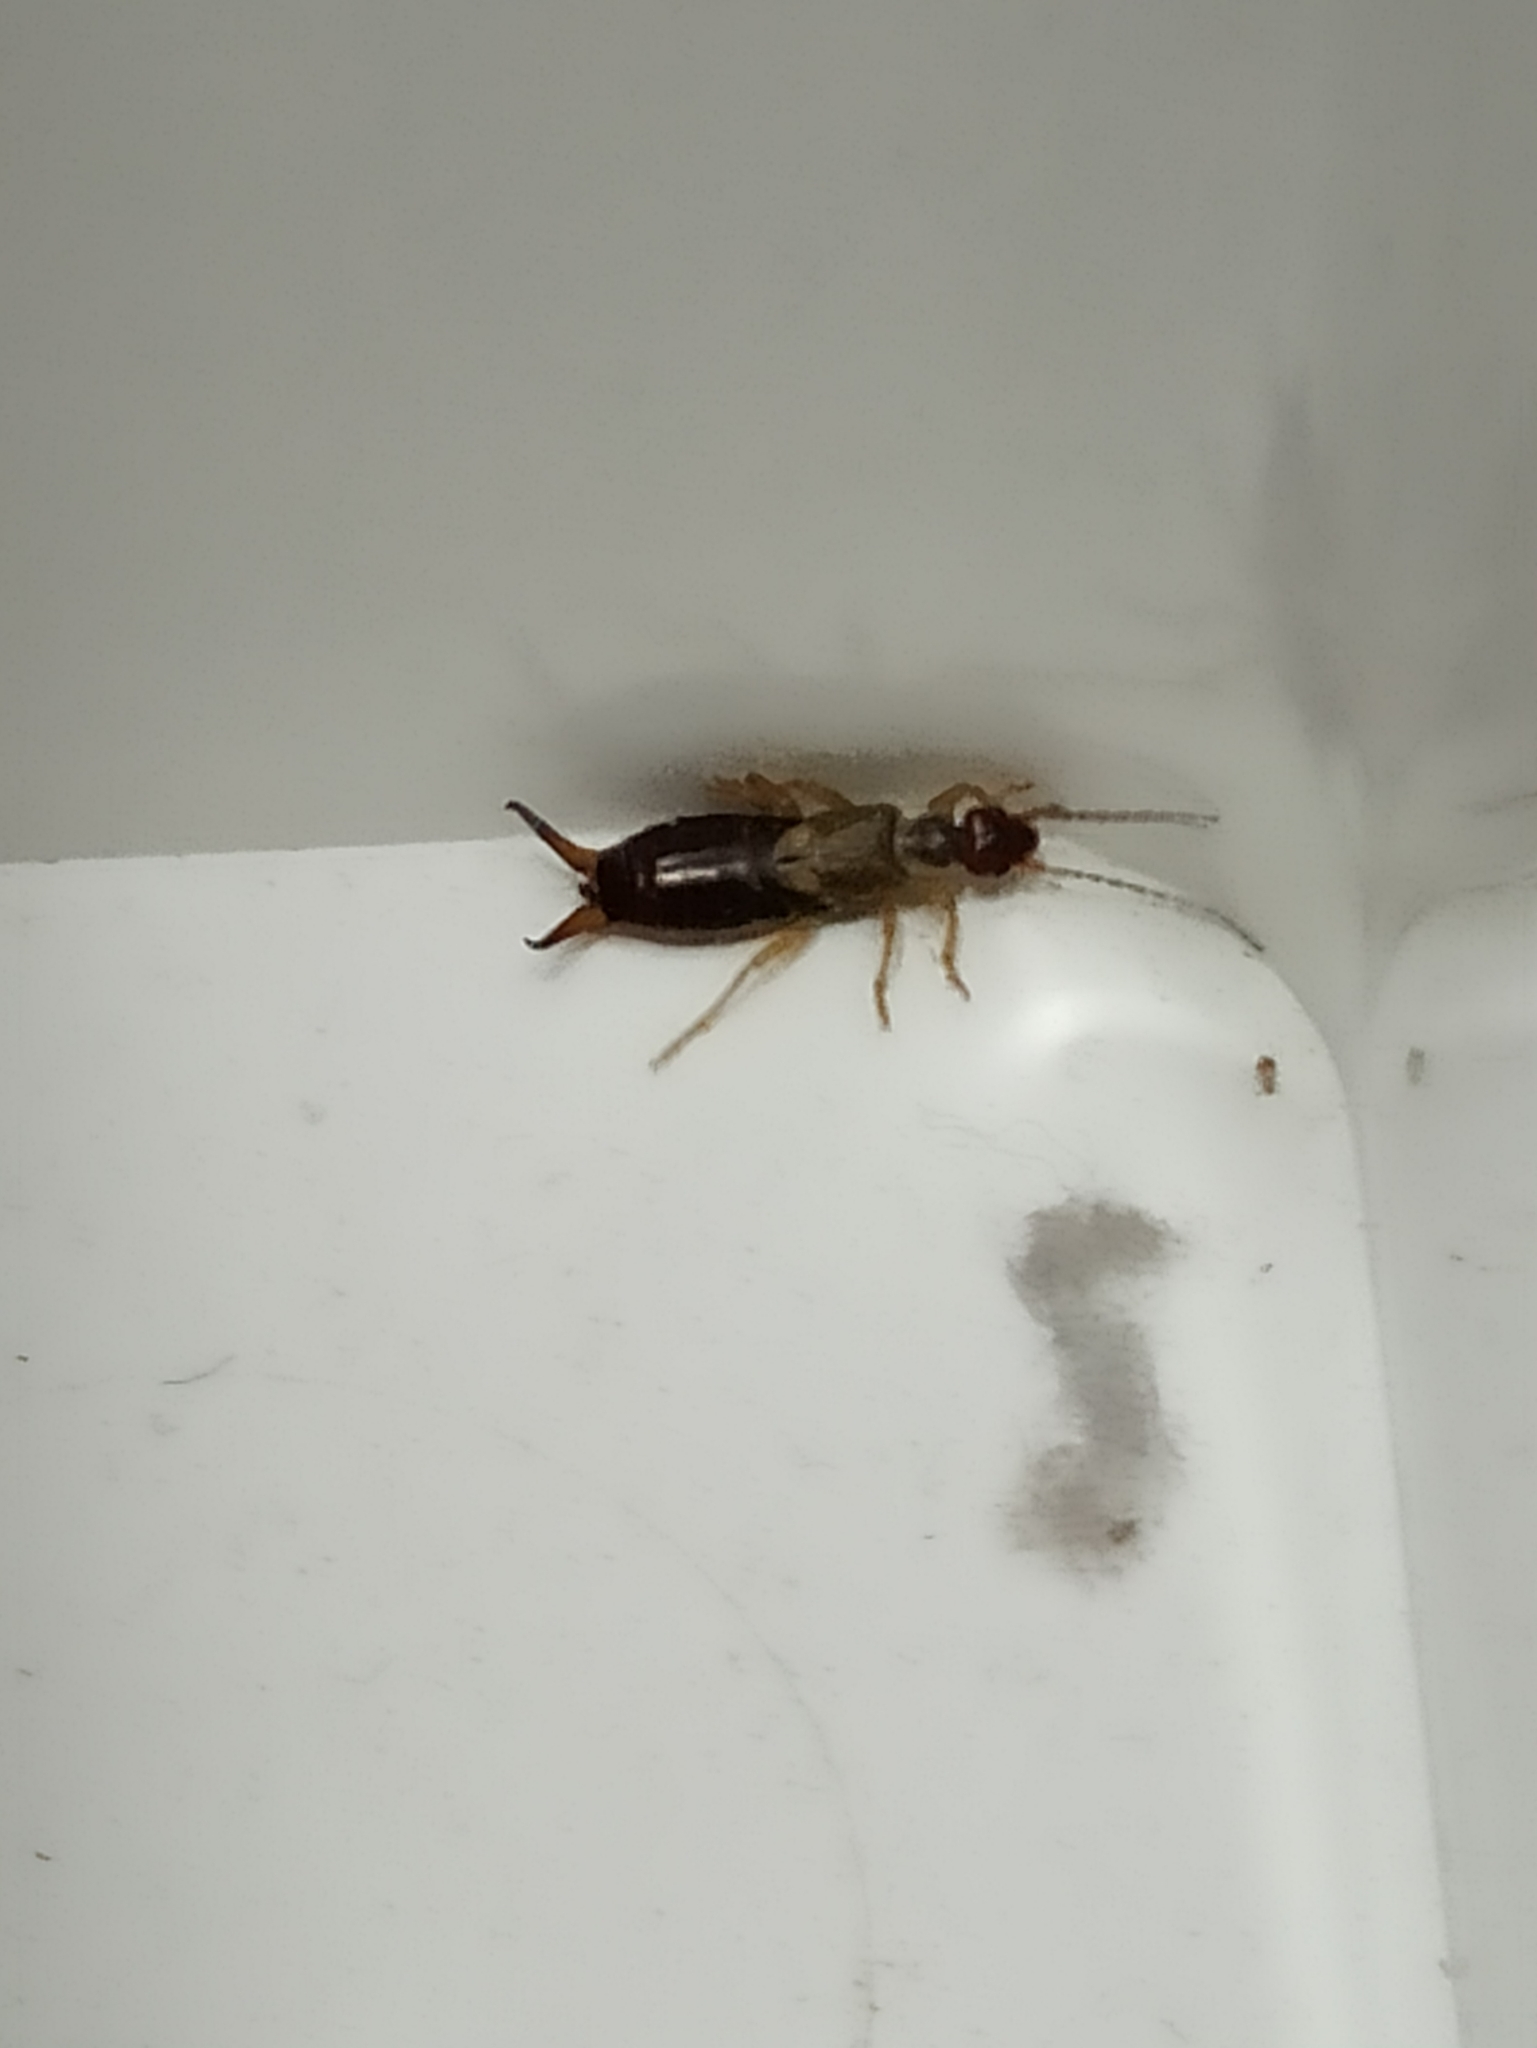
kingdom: Animalia
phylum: Arthropoda
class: Insecta
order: Dermaptera
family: Forficulidae
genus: Forficula
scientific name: Forficula
